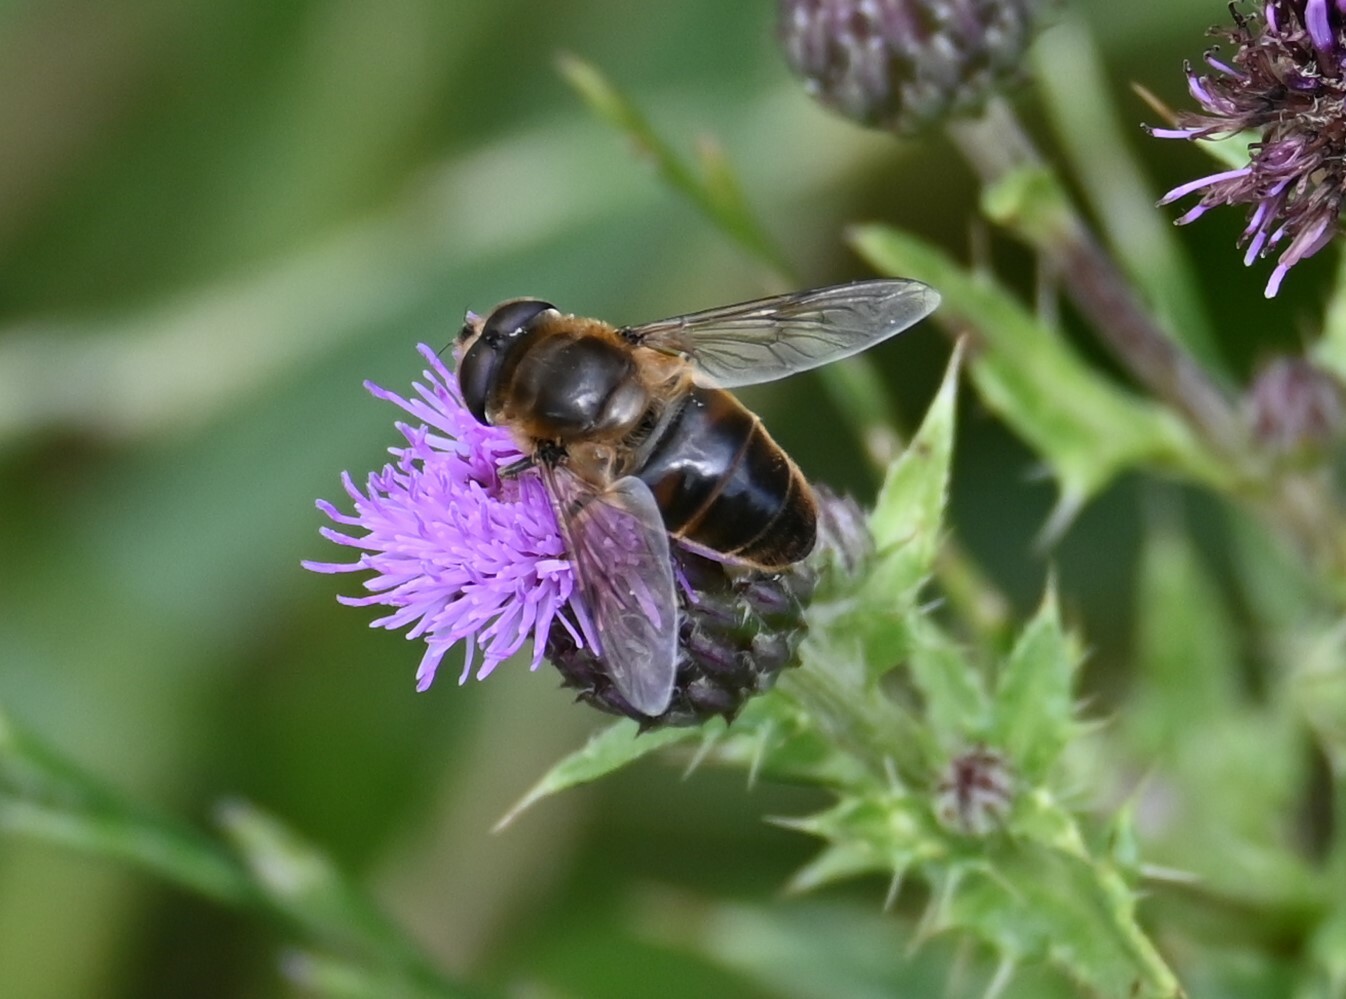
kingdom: Animalia
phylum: Arthropoda
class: Insecta
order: Diptera
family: Syrphidae
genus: Eristalis
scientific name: Eristalis tenax
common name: Drone fly
